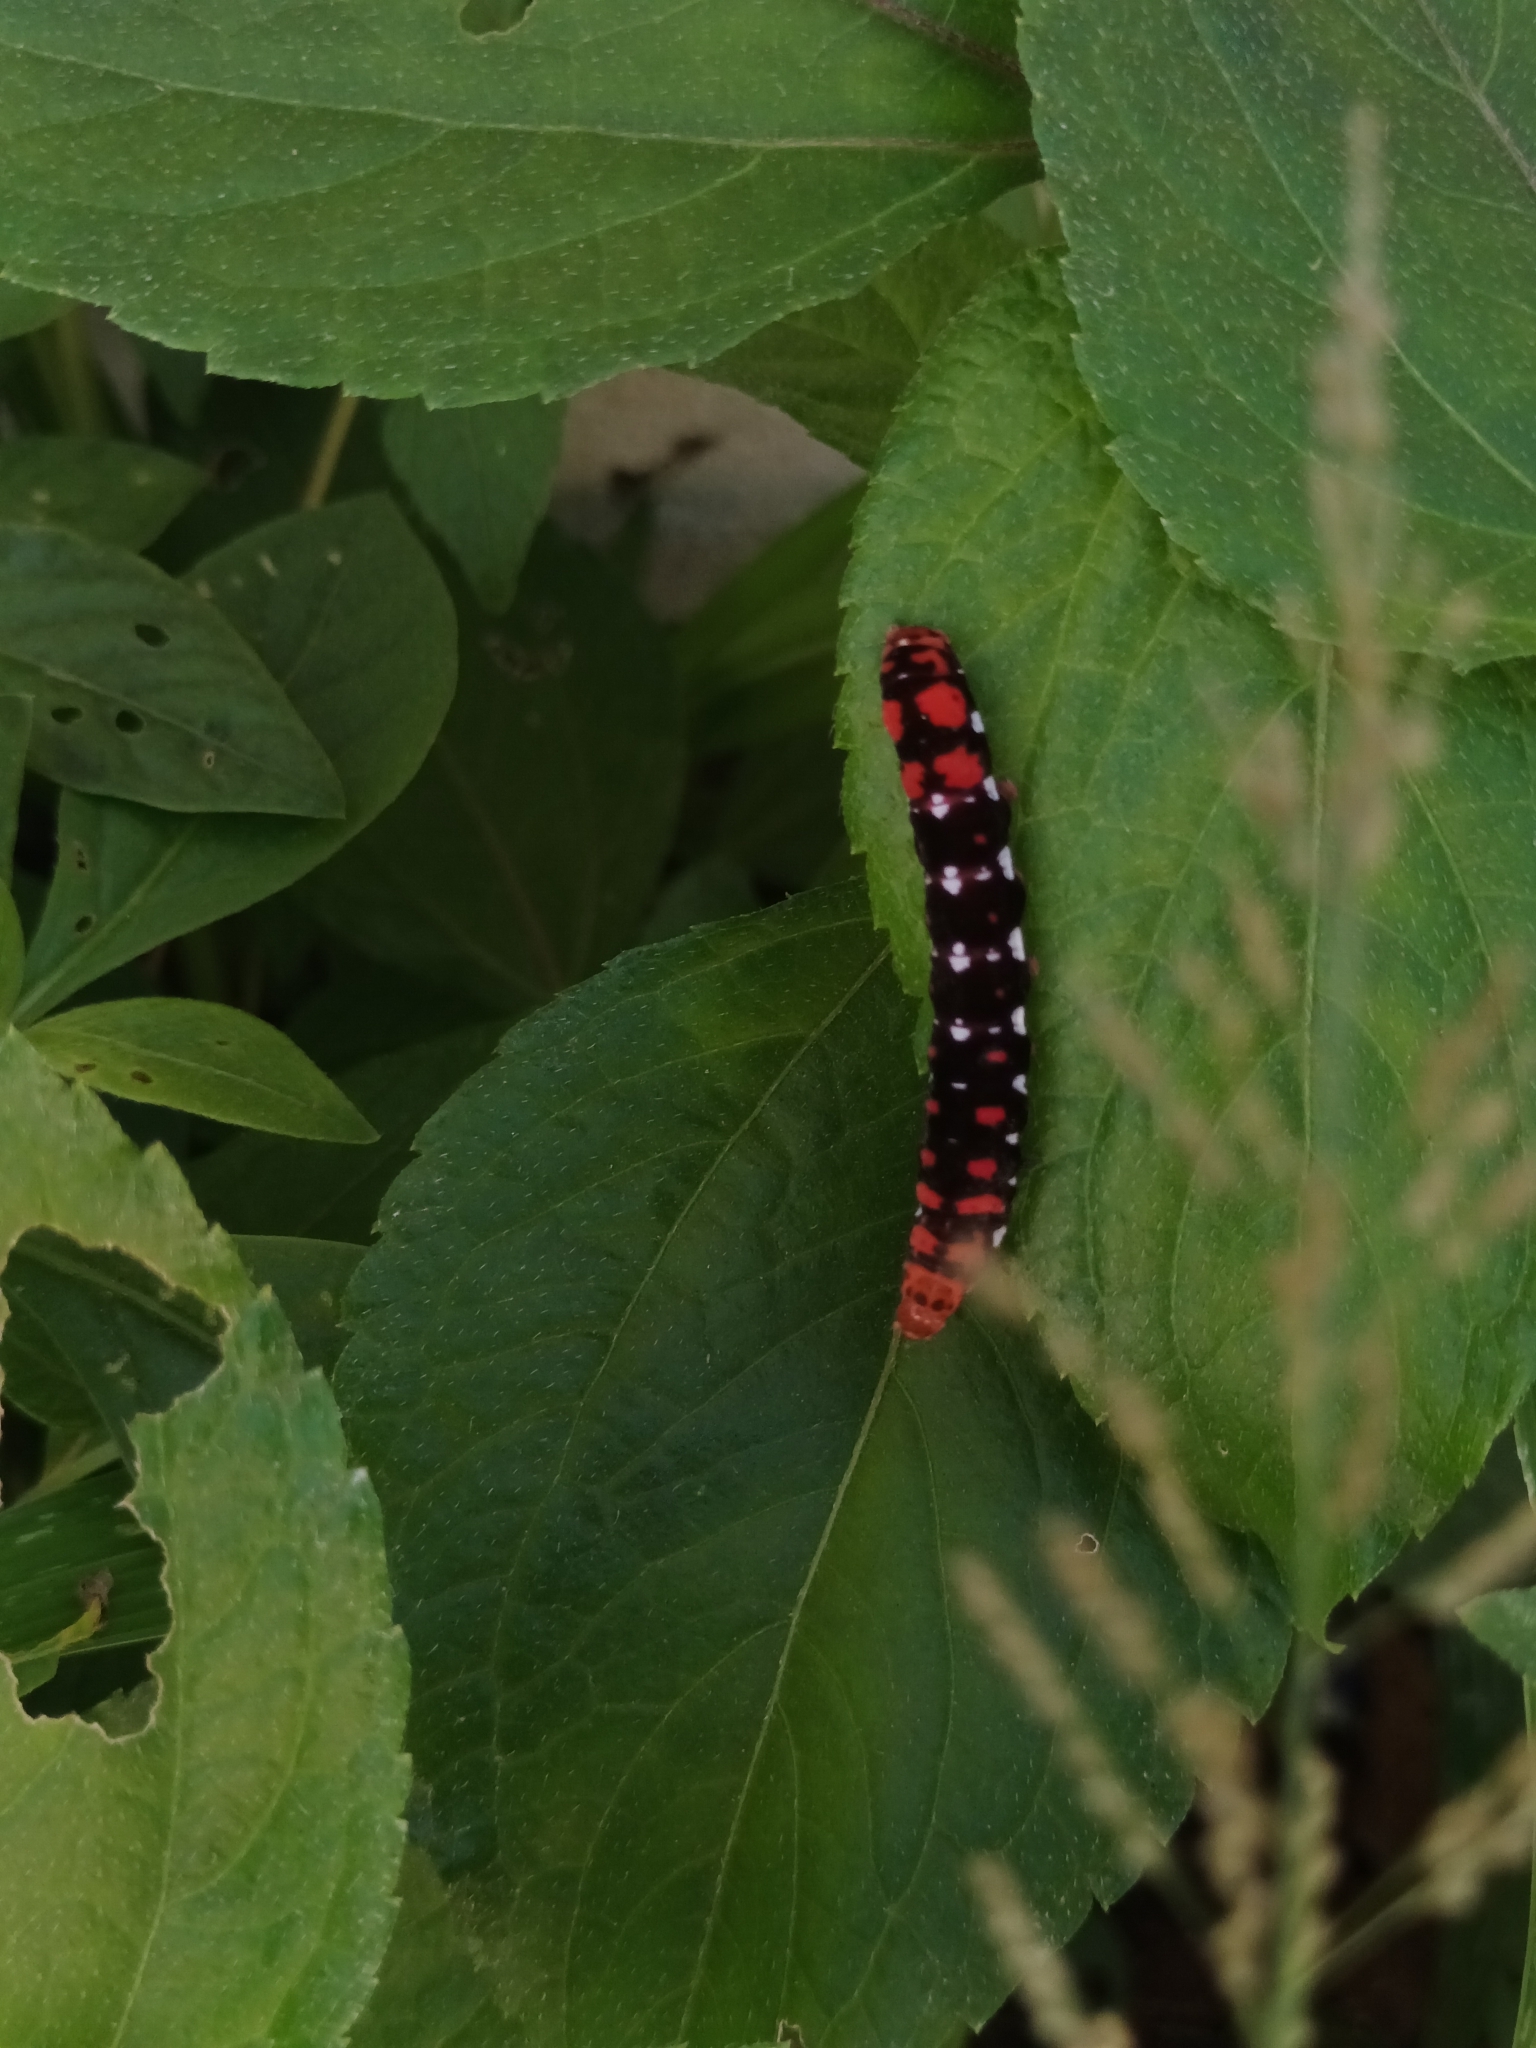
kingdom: Animalia
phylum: Arthropoda
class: Insecta
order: Lepidoptera
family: Noctuidae
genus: Polytela
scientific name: Polytela gloriosae
